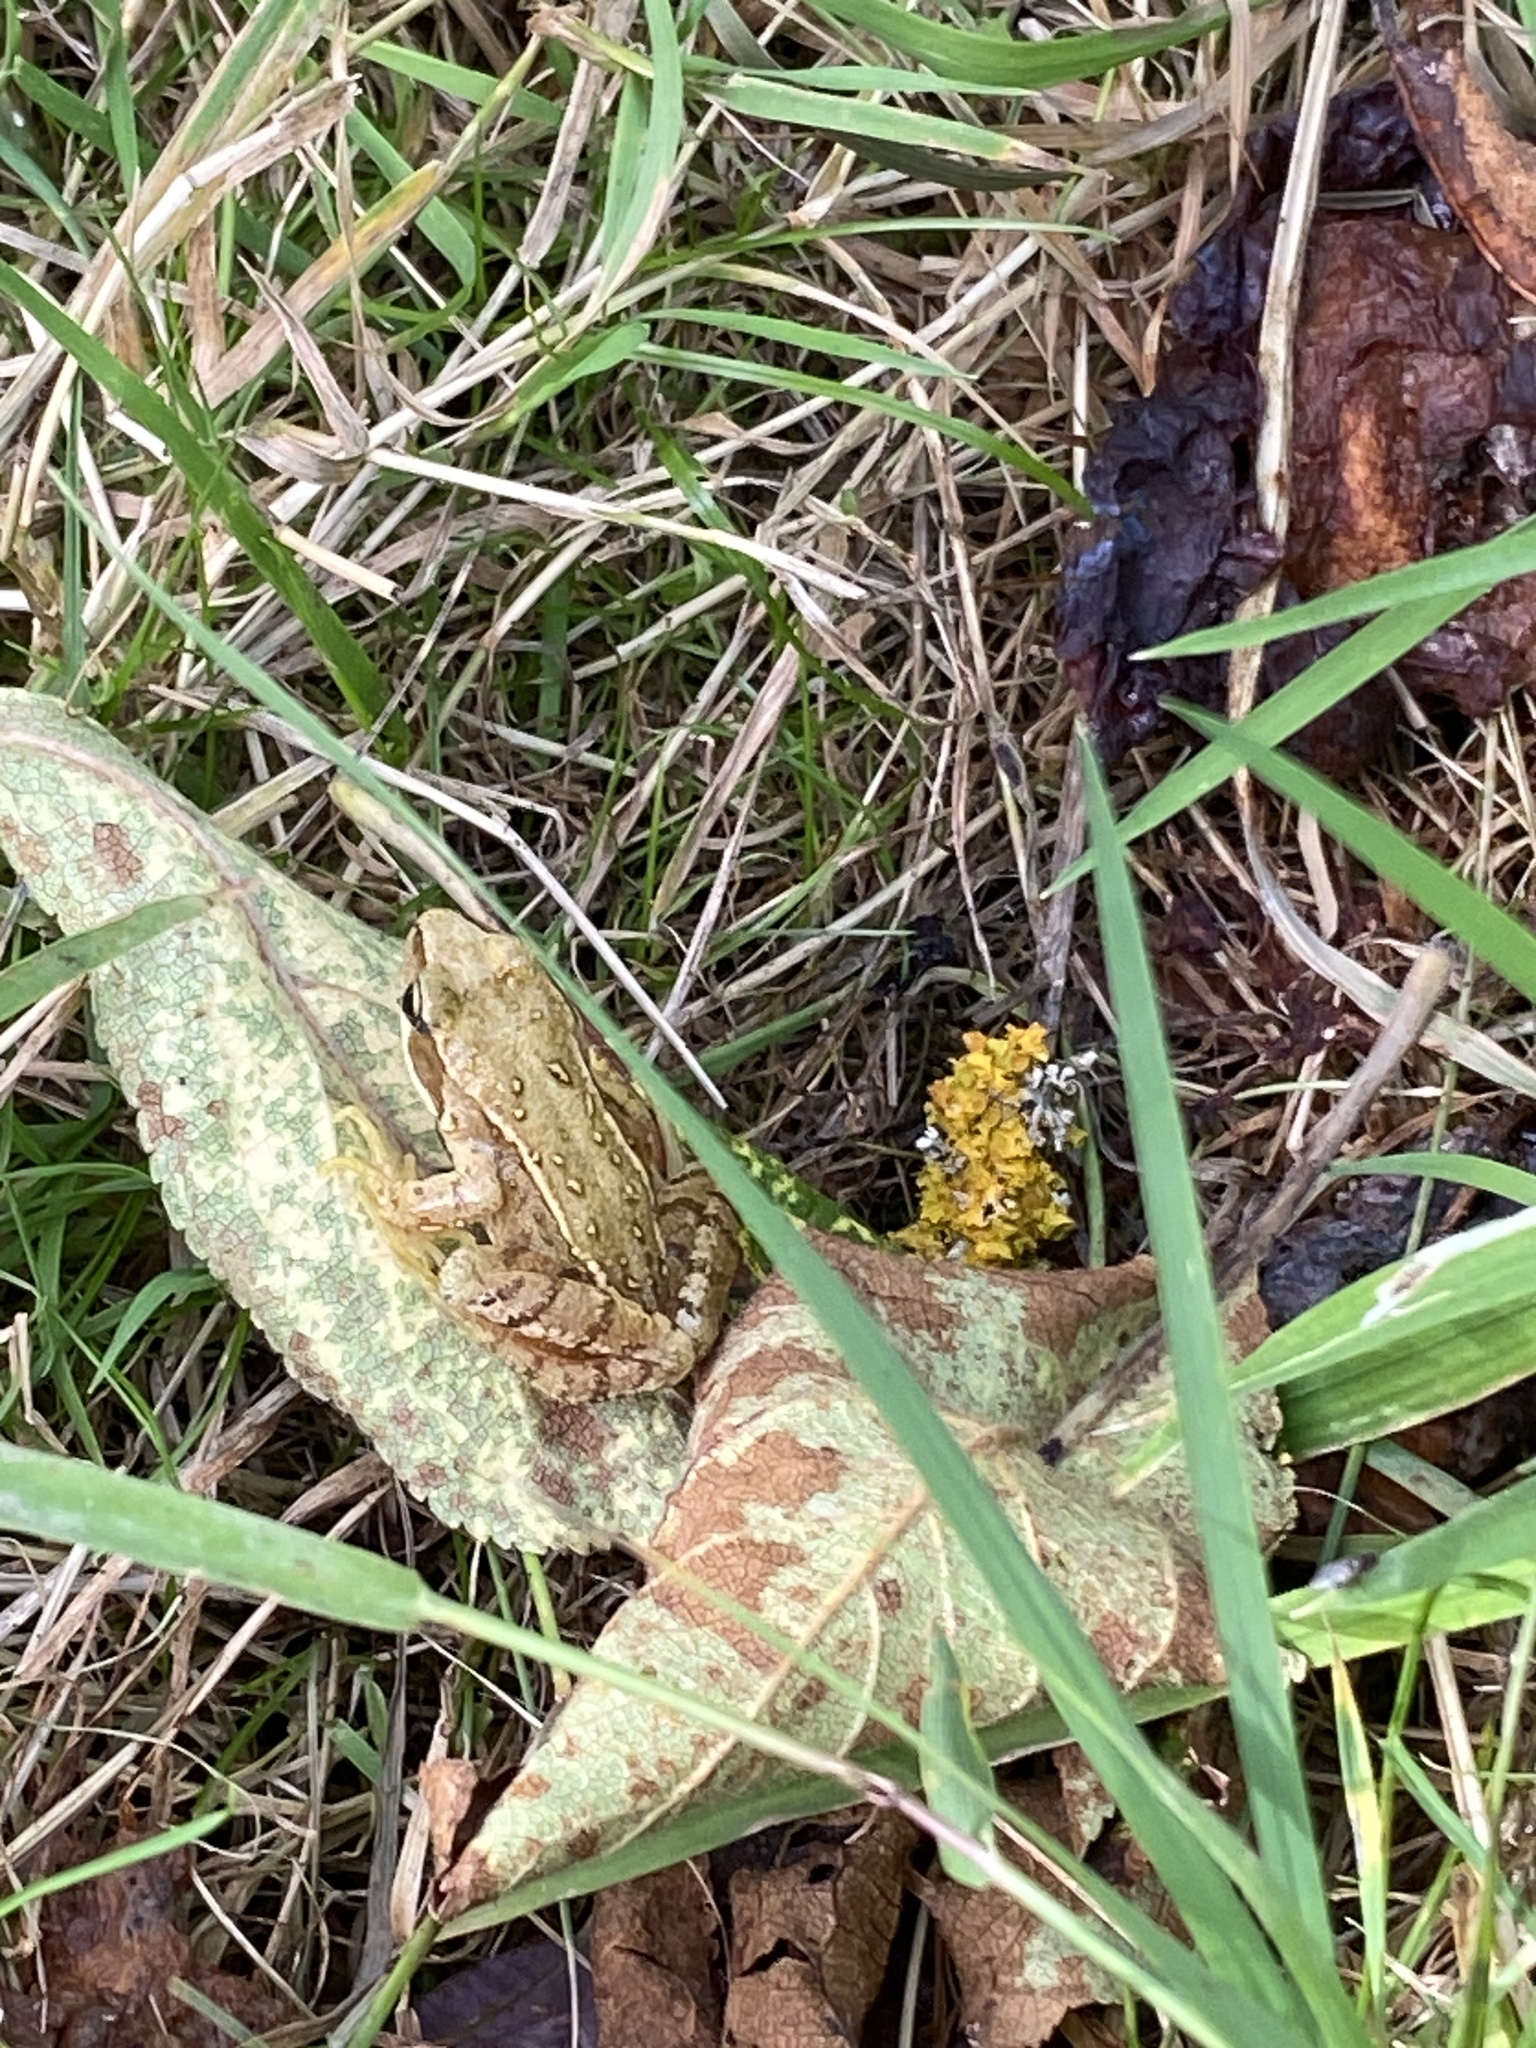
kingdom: Animalia
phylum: Chordata
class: Amphibia
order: Anura
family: Ranidae
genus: Rana
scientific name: Rana temporaria
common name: Common frog
